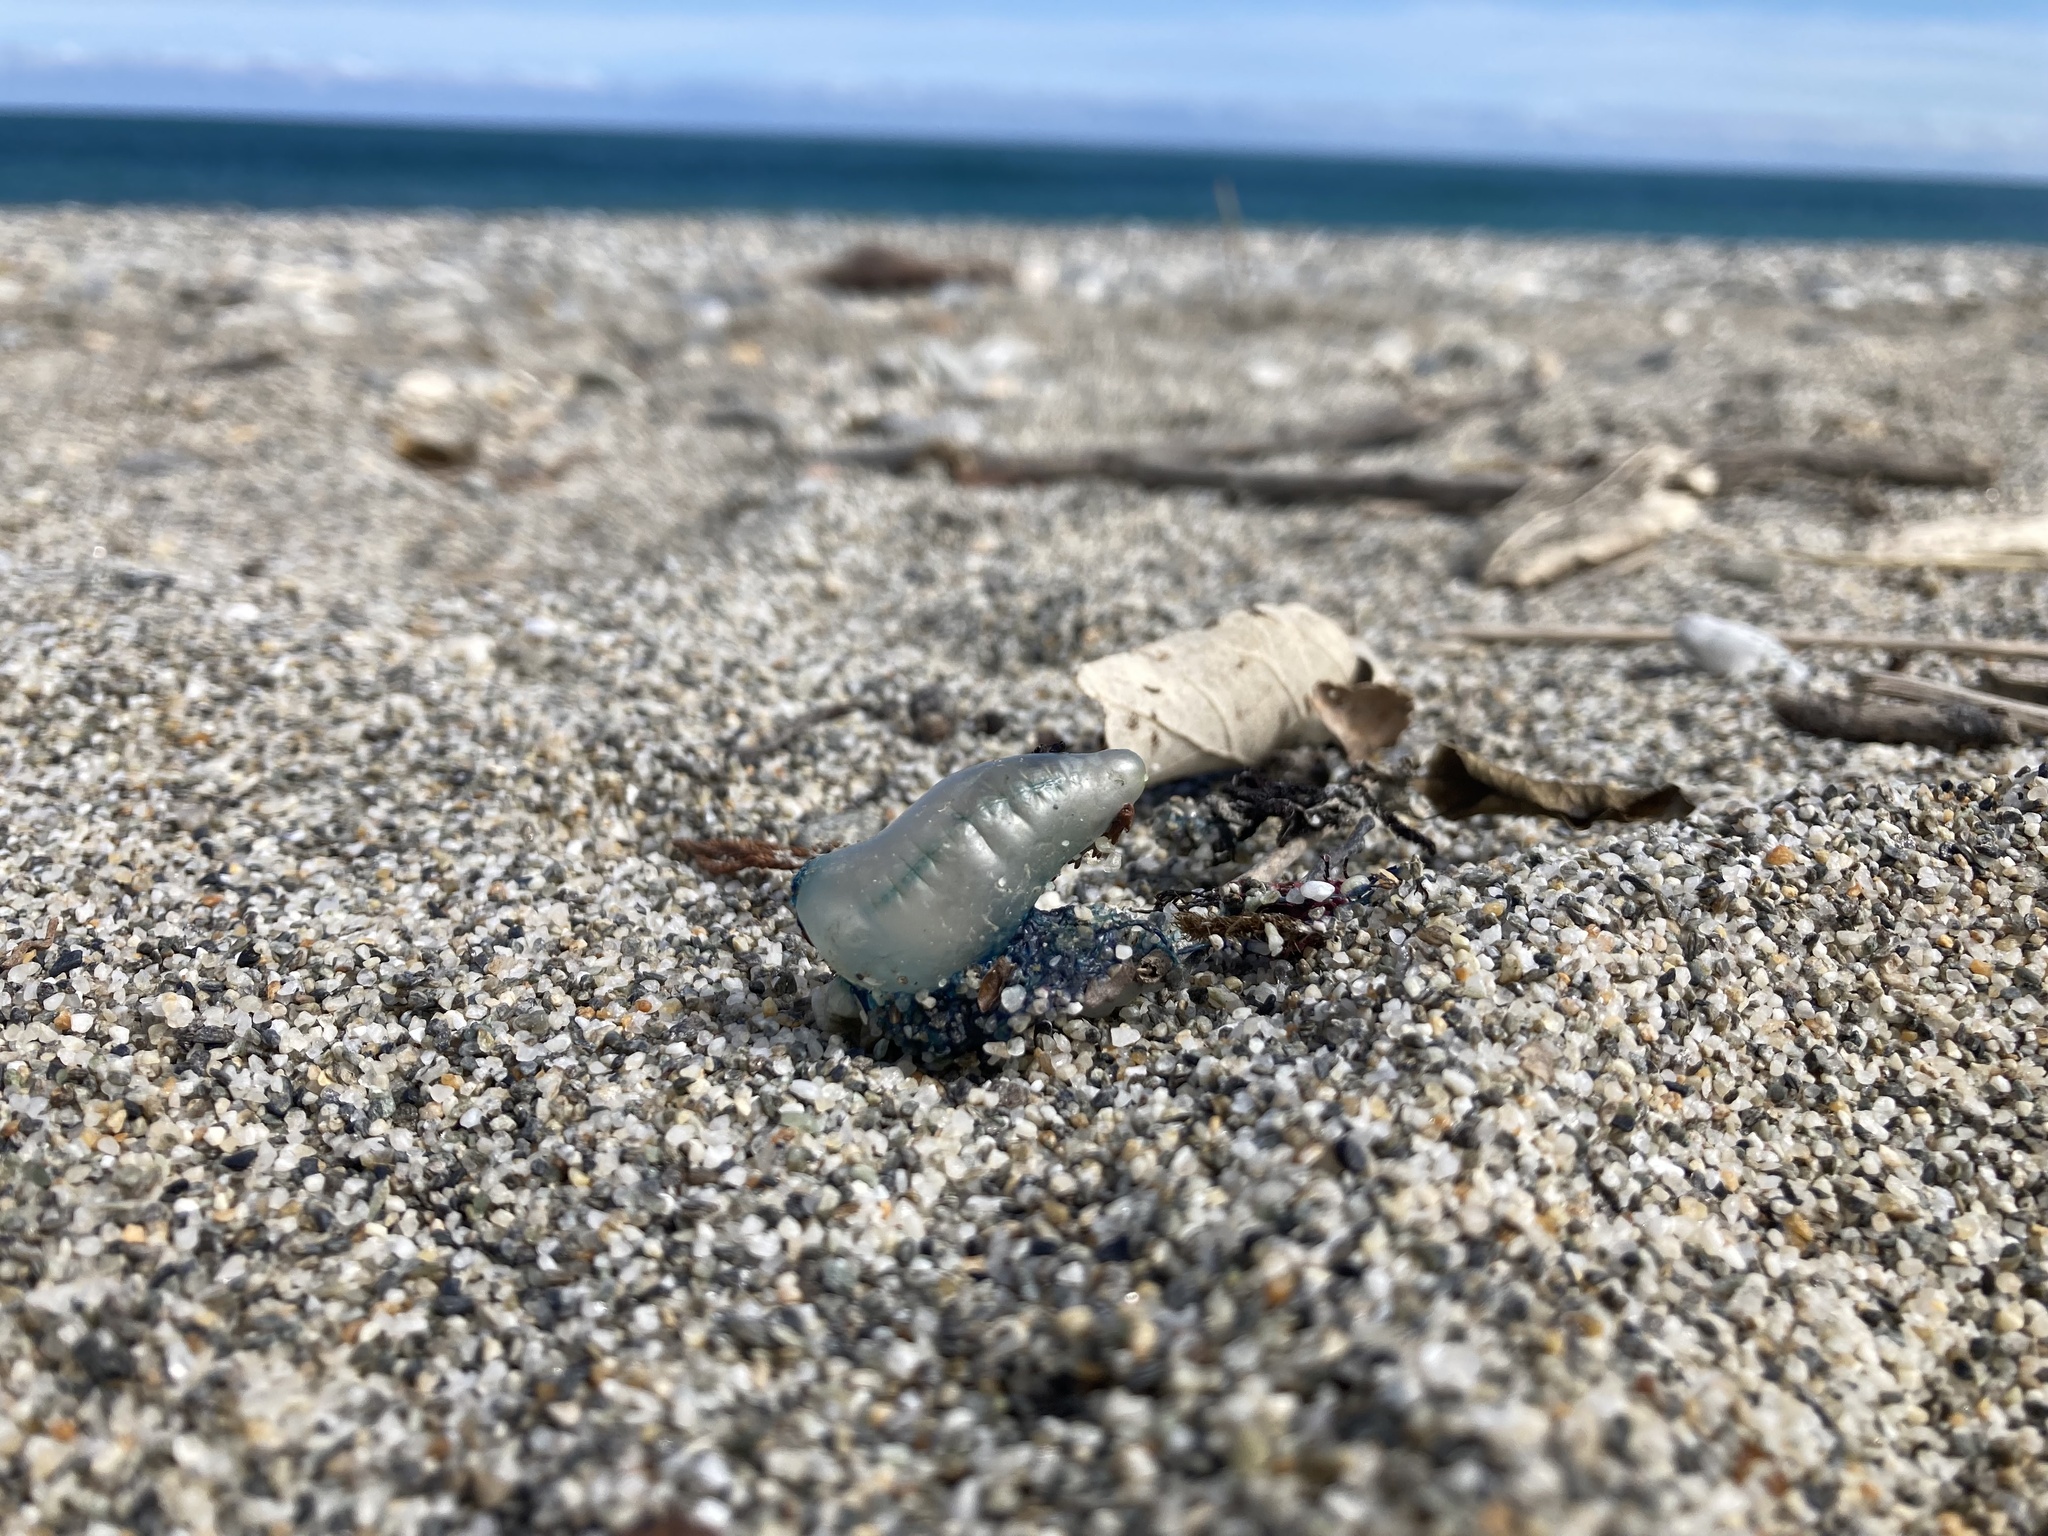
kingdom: Animalia
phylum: Cnidaria
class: Hydrozoa
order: Siphonophorae
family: Physaliidae
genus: Physalia
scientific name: Physalia physalis
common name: Portuguese man-of-war
